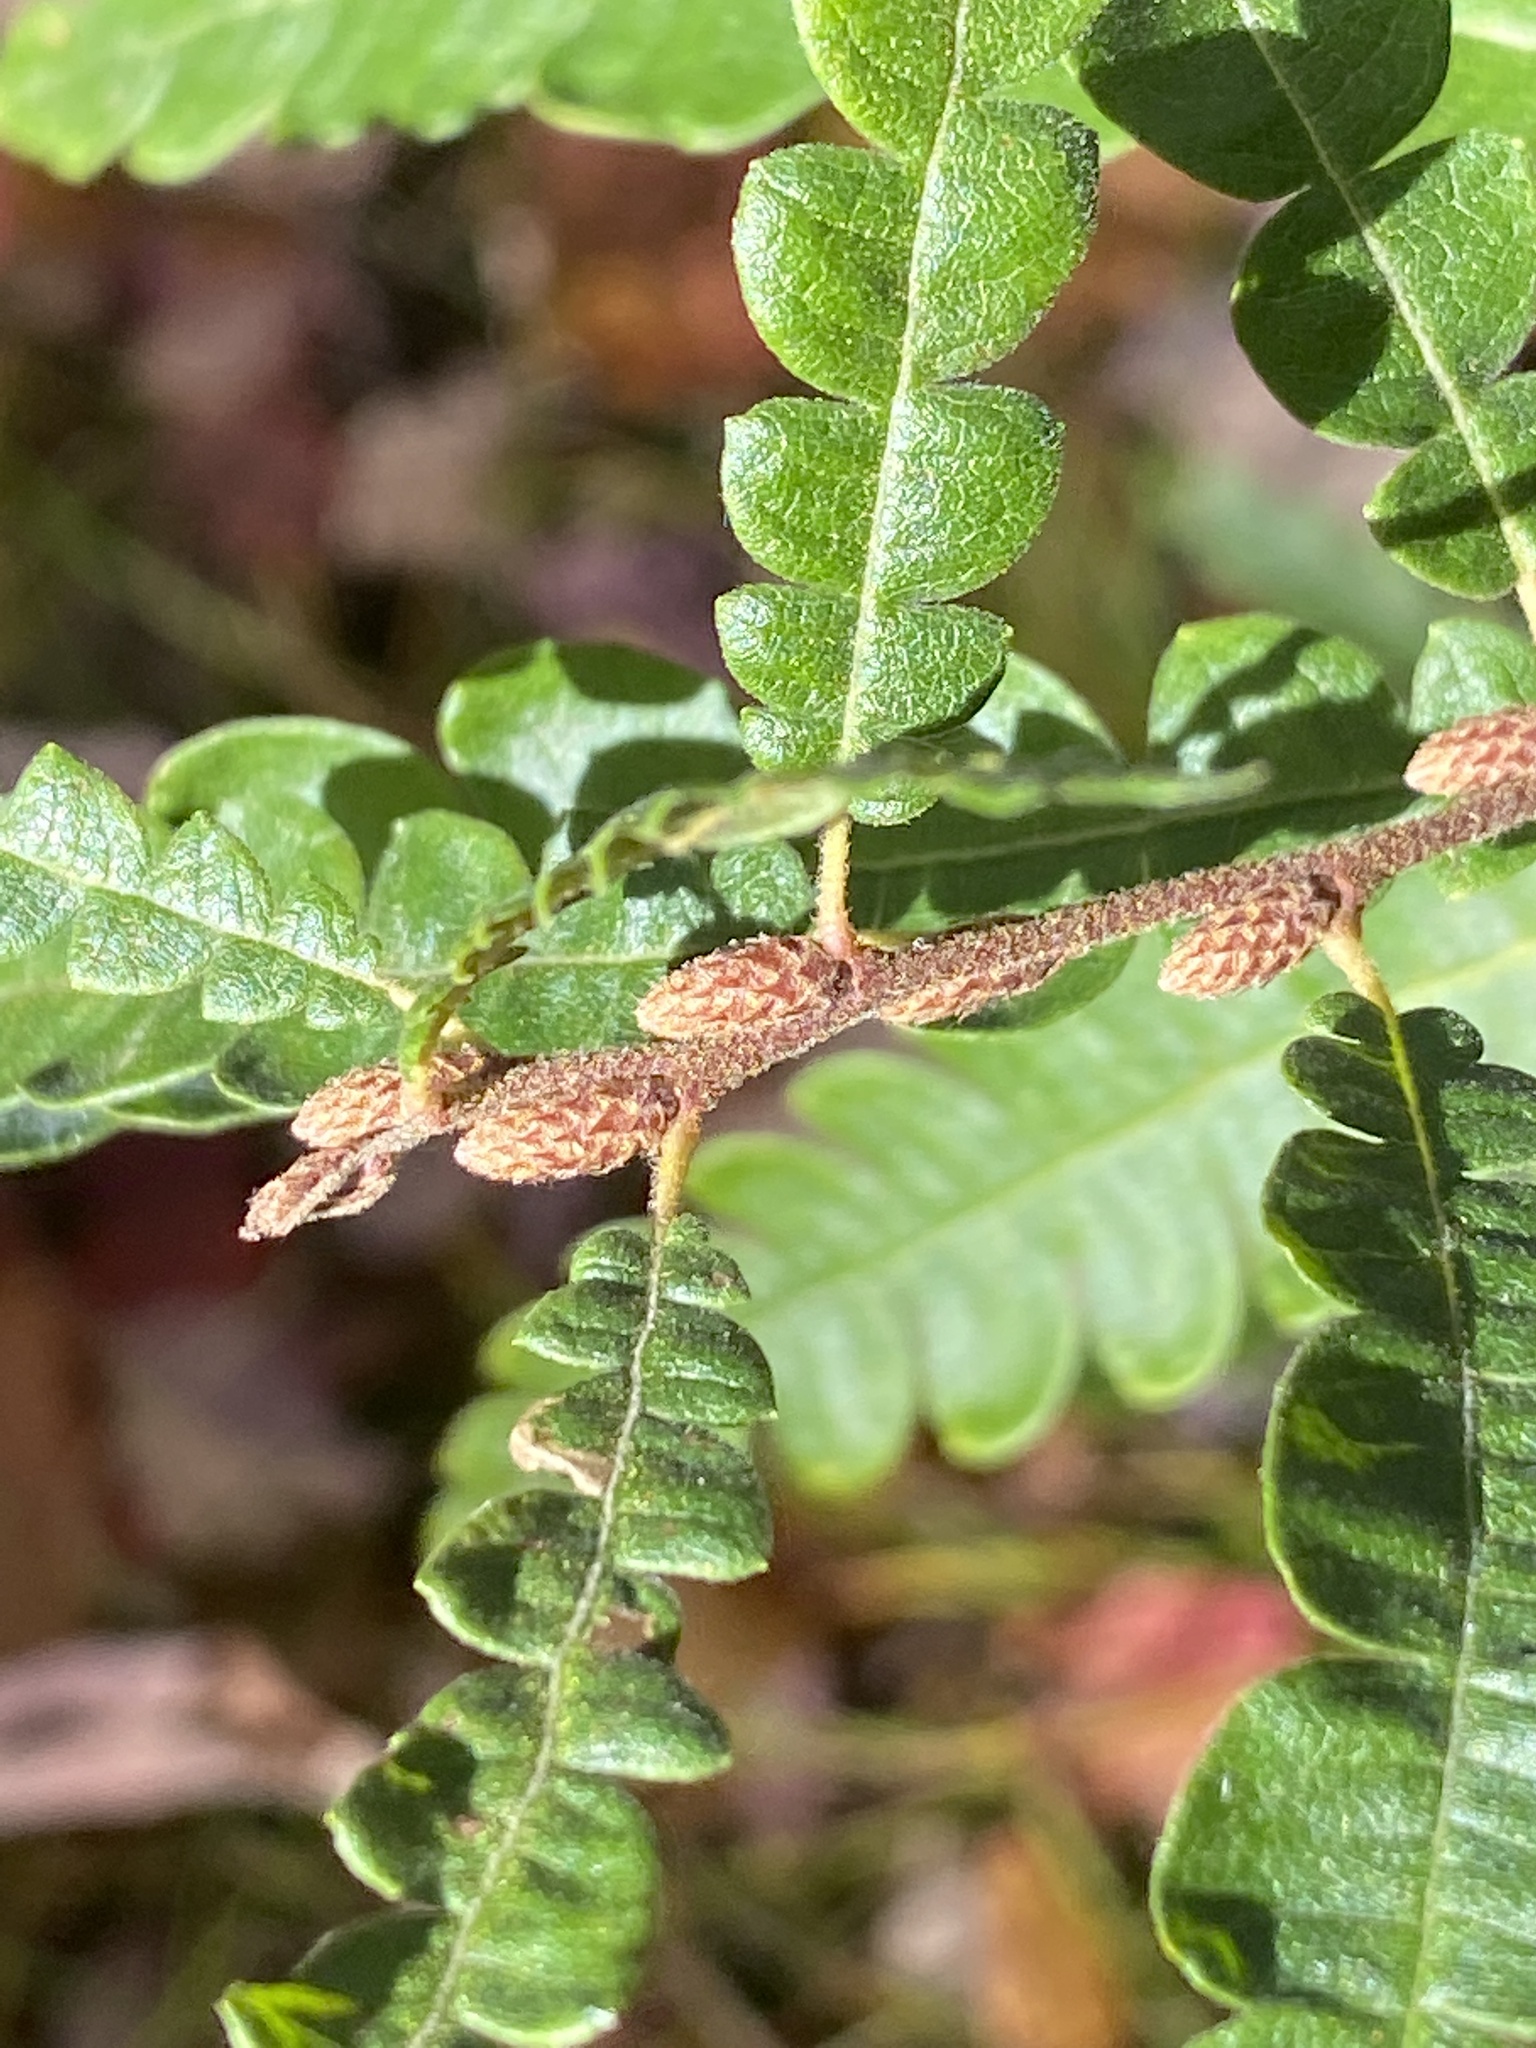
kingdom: Plantae
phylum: Tracheophyta
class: Magnoliopsida
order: Fagales
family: Myricaceae
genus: Comptonia
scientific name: Comptonia peregrina
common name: Sweet-fern
